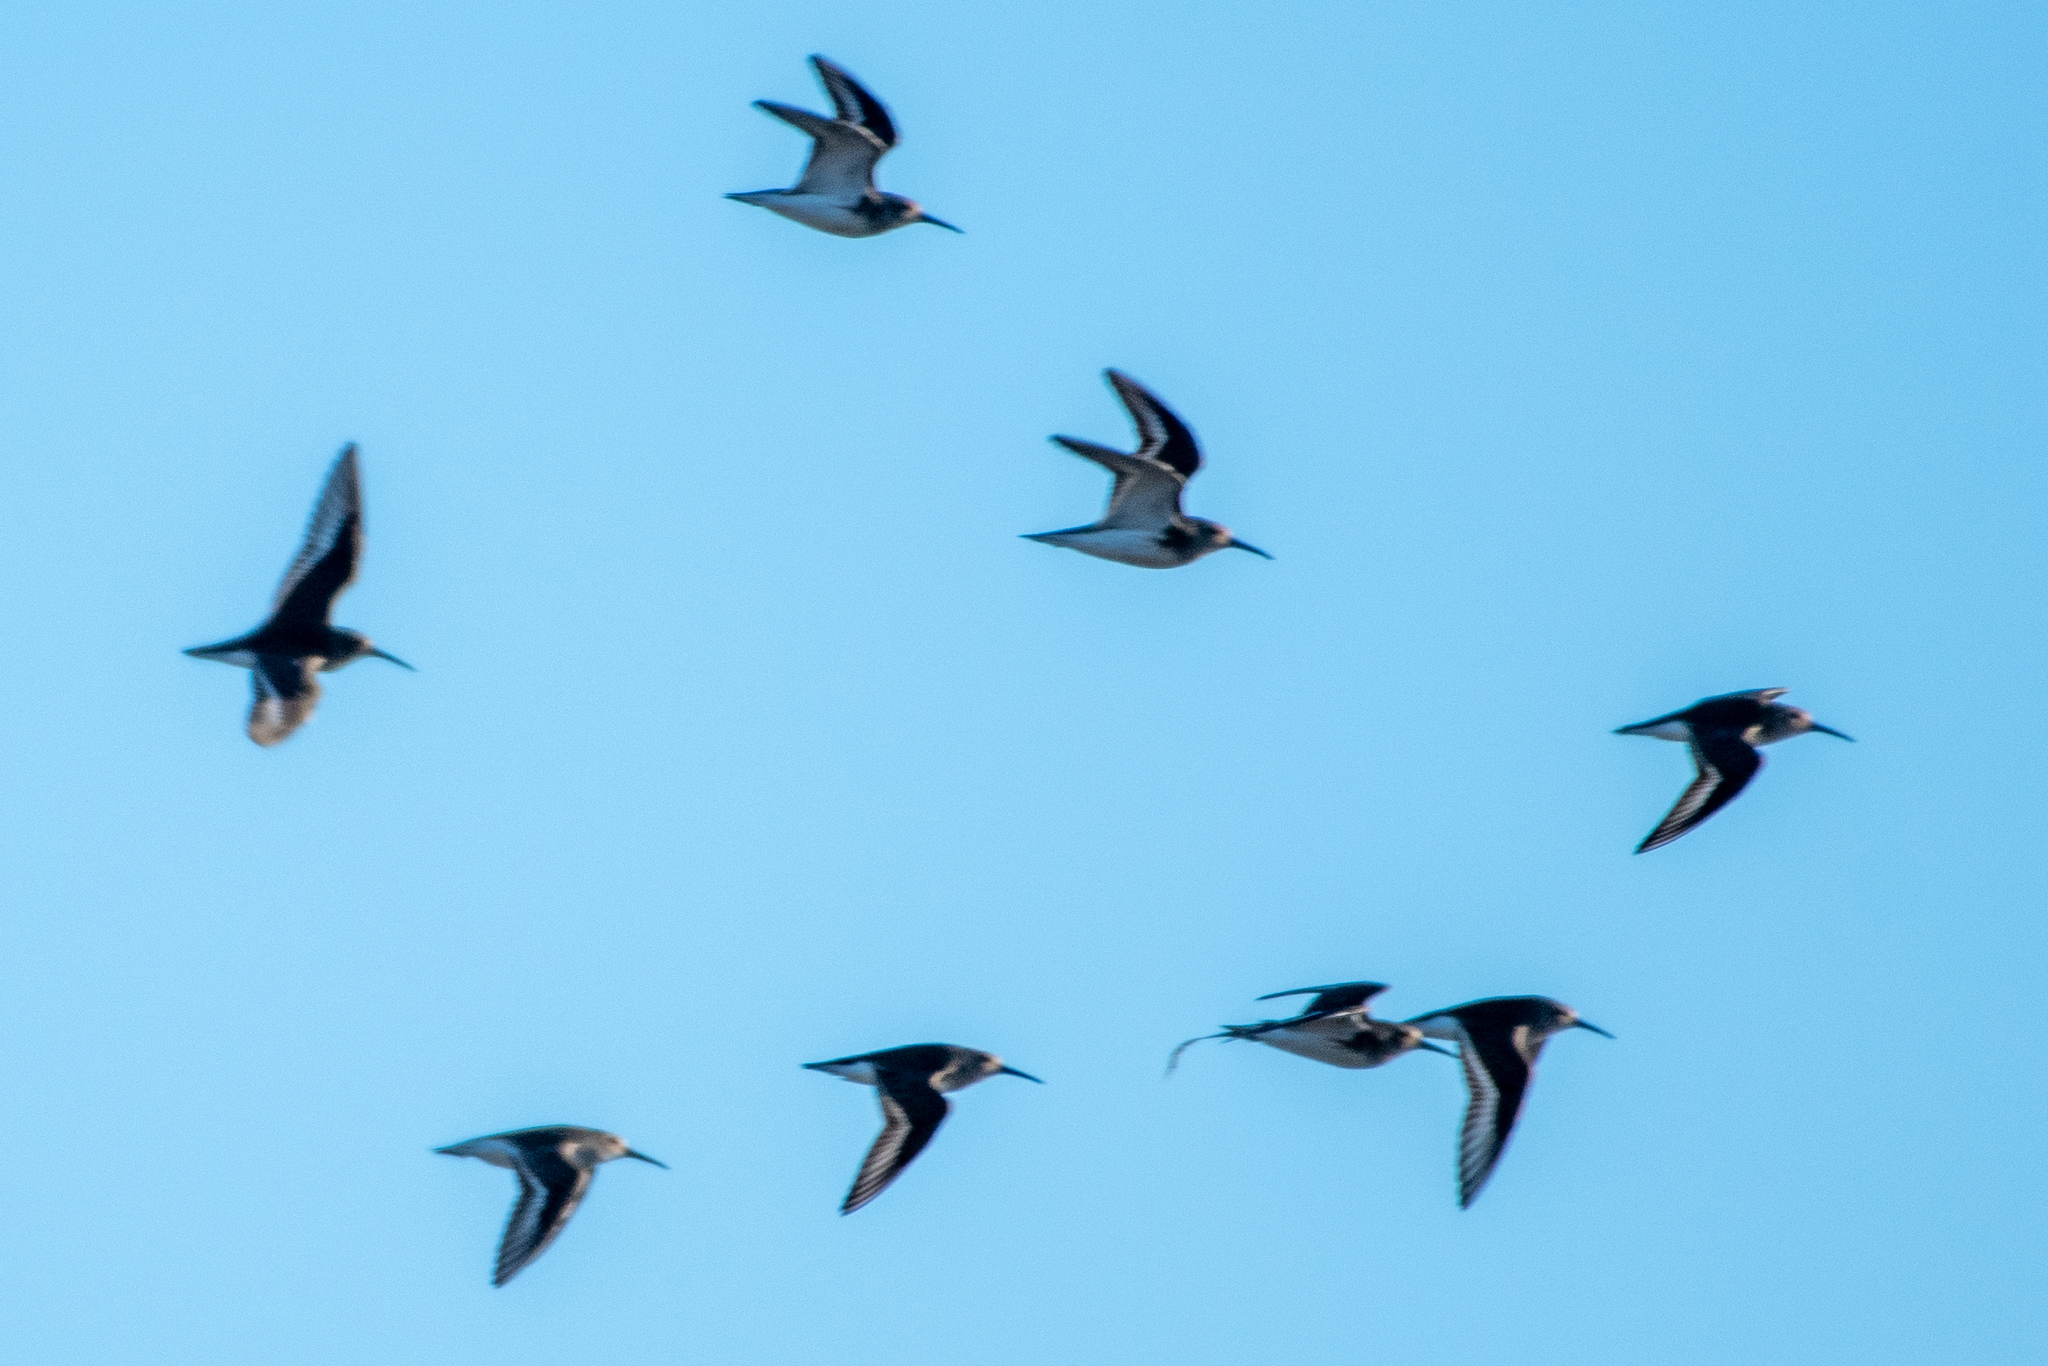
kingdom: Animalia
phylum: Chordata
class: Aves
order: Charadriiformes
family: Scolopacidae
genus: Calidris
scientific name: Calidris alpina
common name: Dunlin
